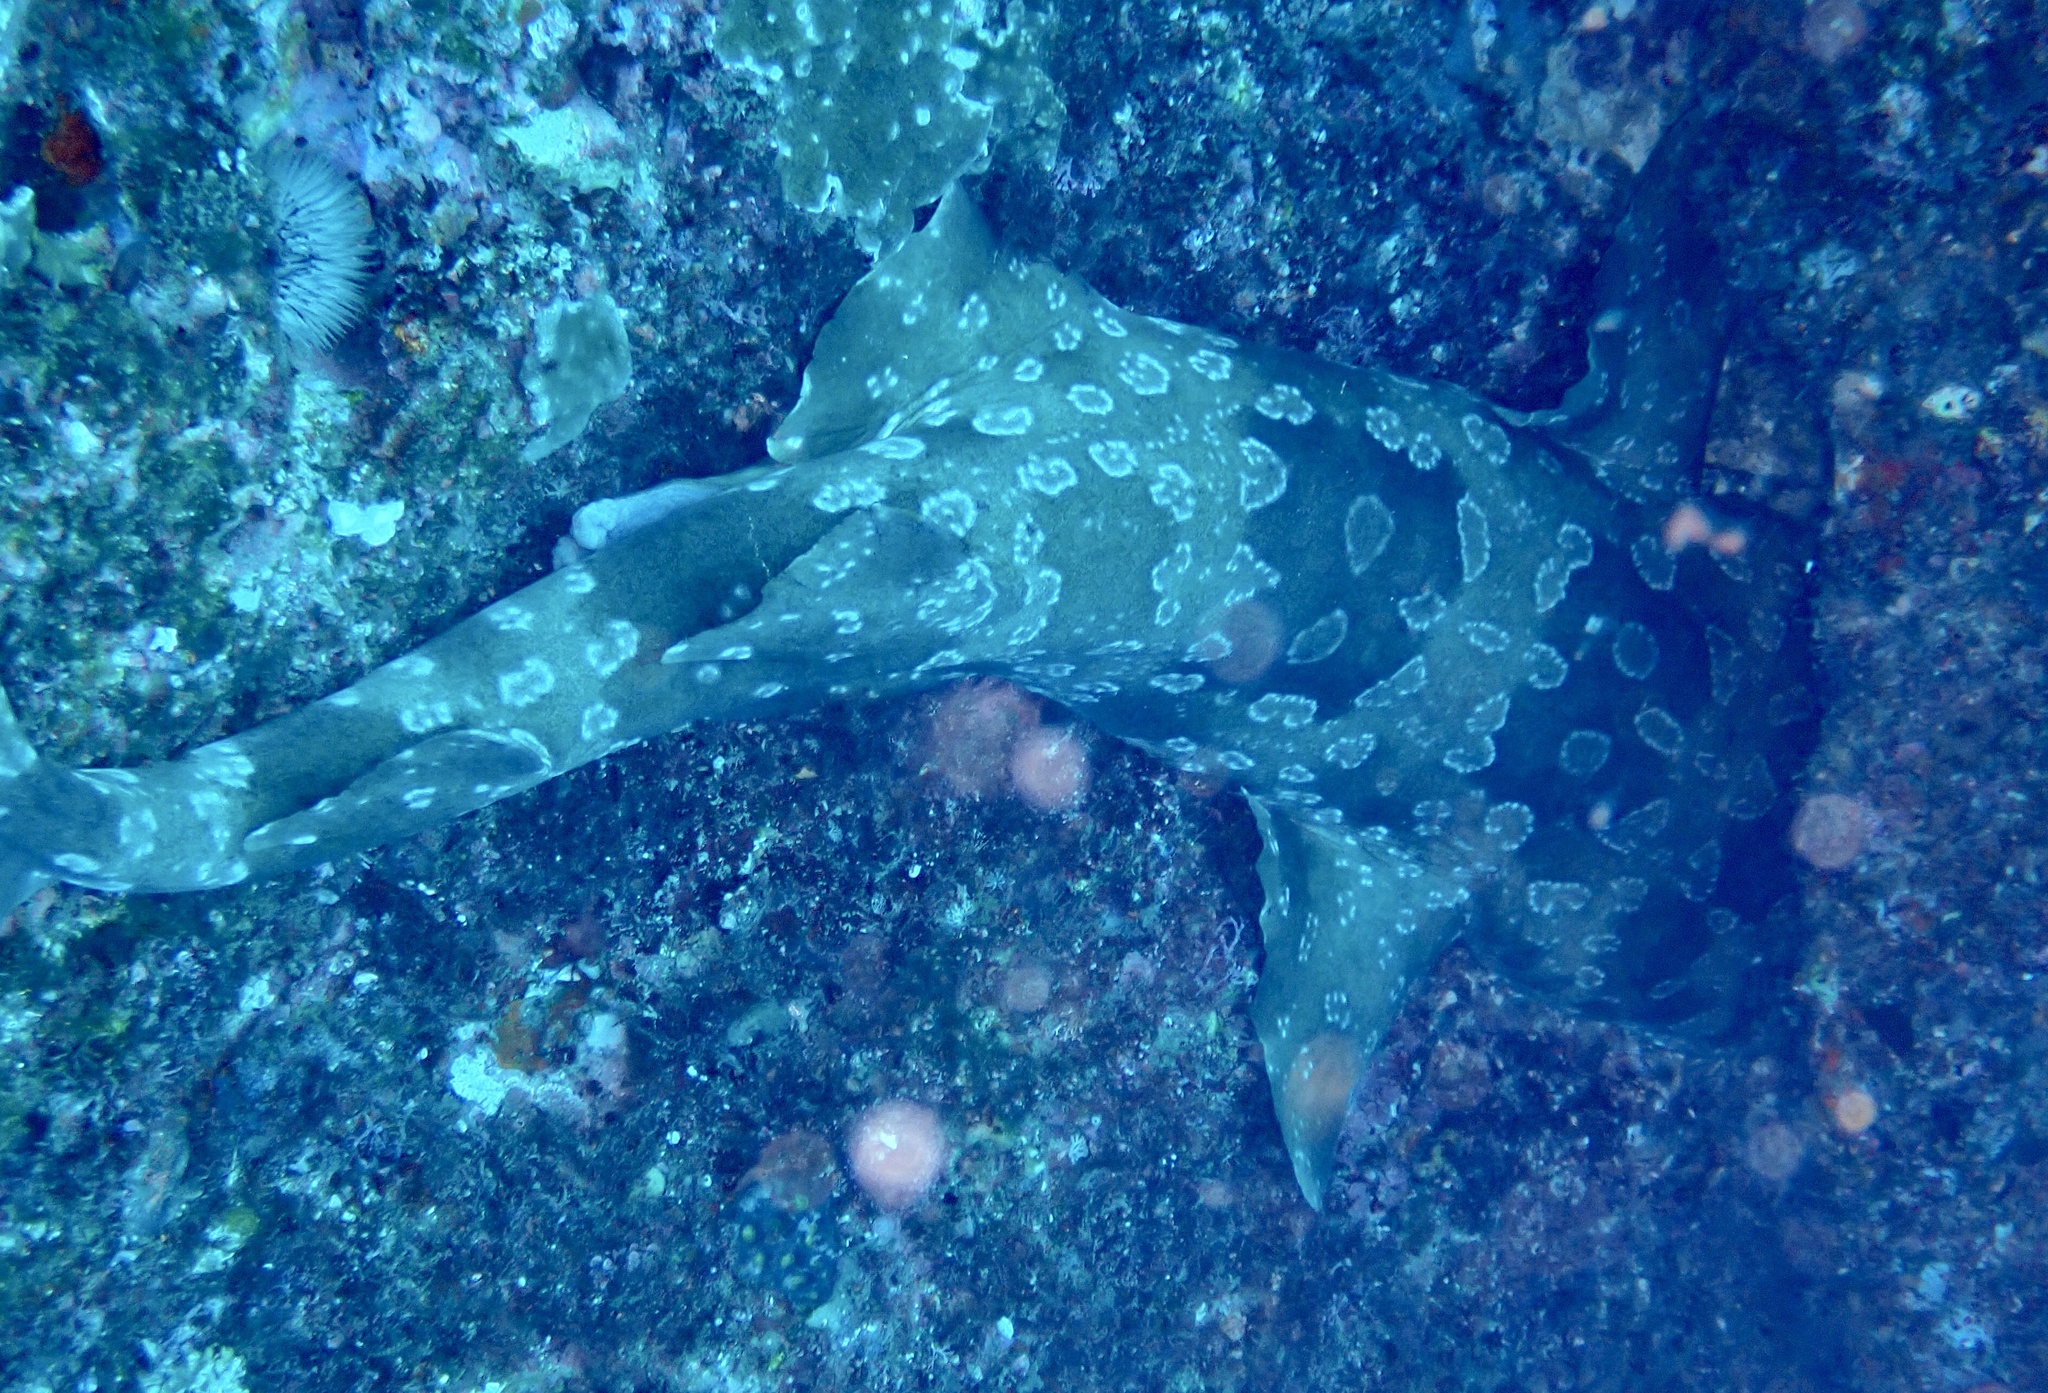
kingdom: Animalia
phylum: Chordata
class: Elasmobranchii
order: Orectolobiformes
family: Orectolobidae
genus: Orectolobus
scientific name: Orectolobus maculatus
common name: Spotted wobbegong
